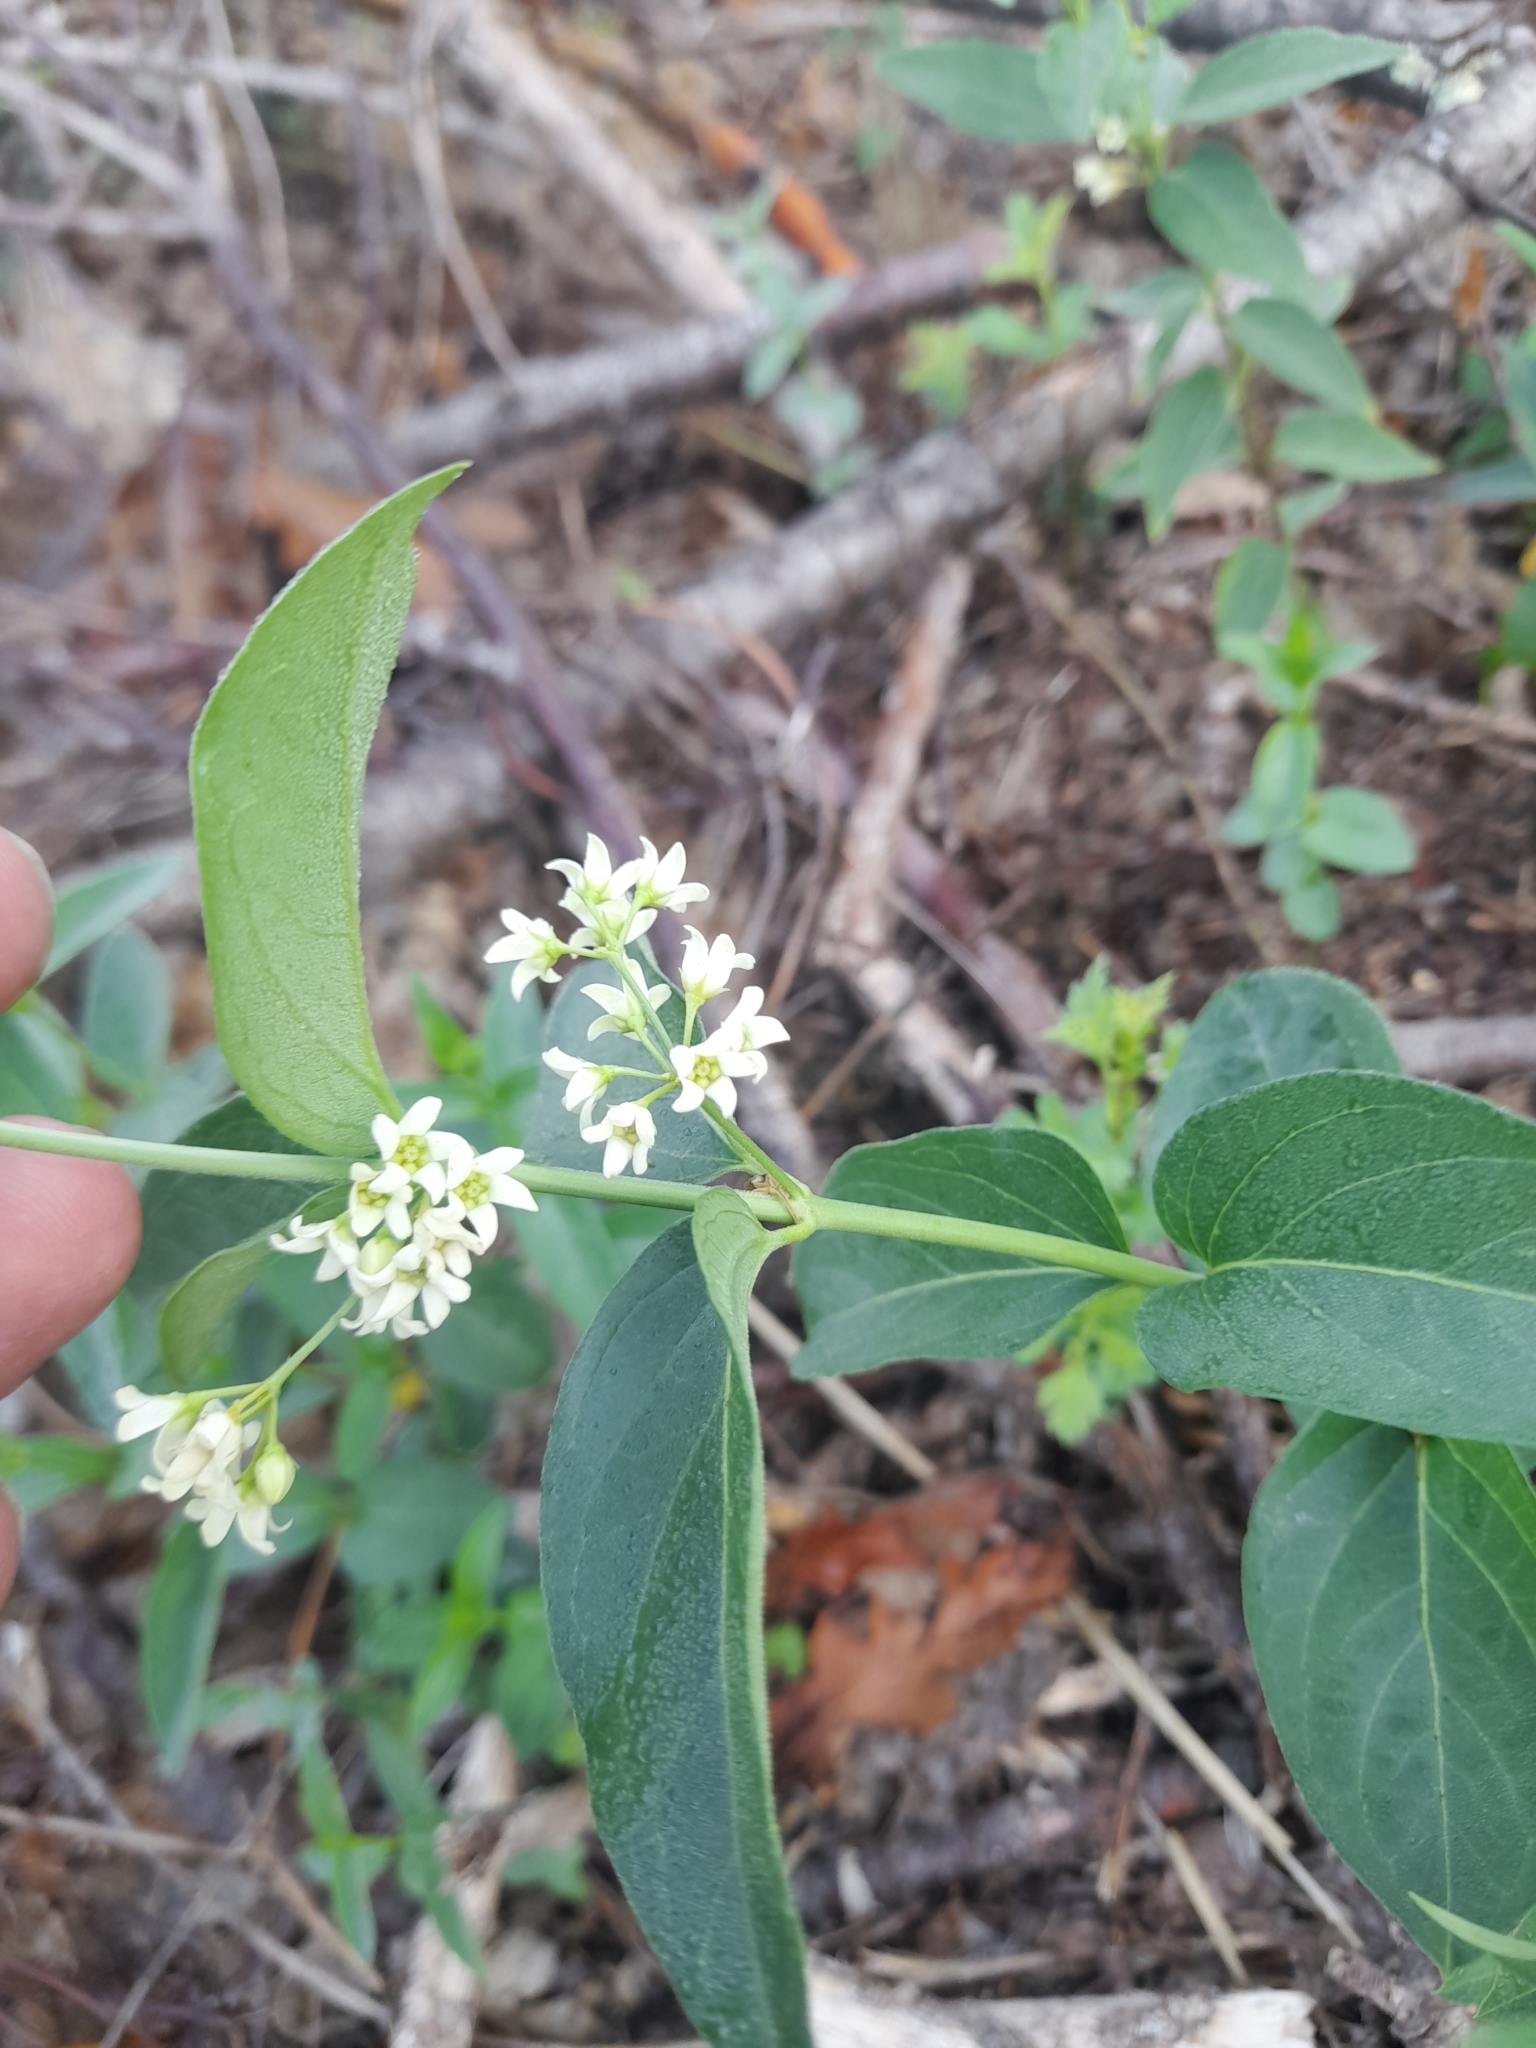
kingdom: Plantae
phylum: Tracheophyta
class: Magnoliopsida
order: Gentianales
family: Apocynaceae
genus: Vincetoxicum
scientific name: Vincetoxicum hirundinaria
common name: White swallowwort
